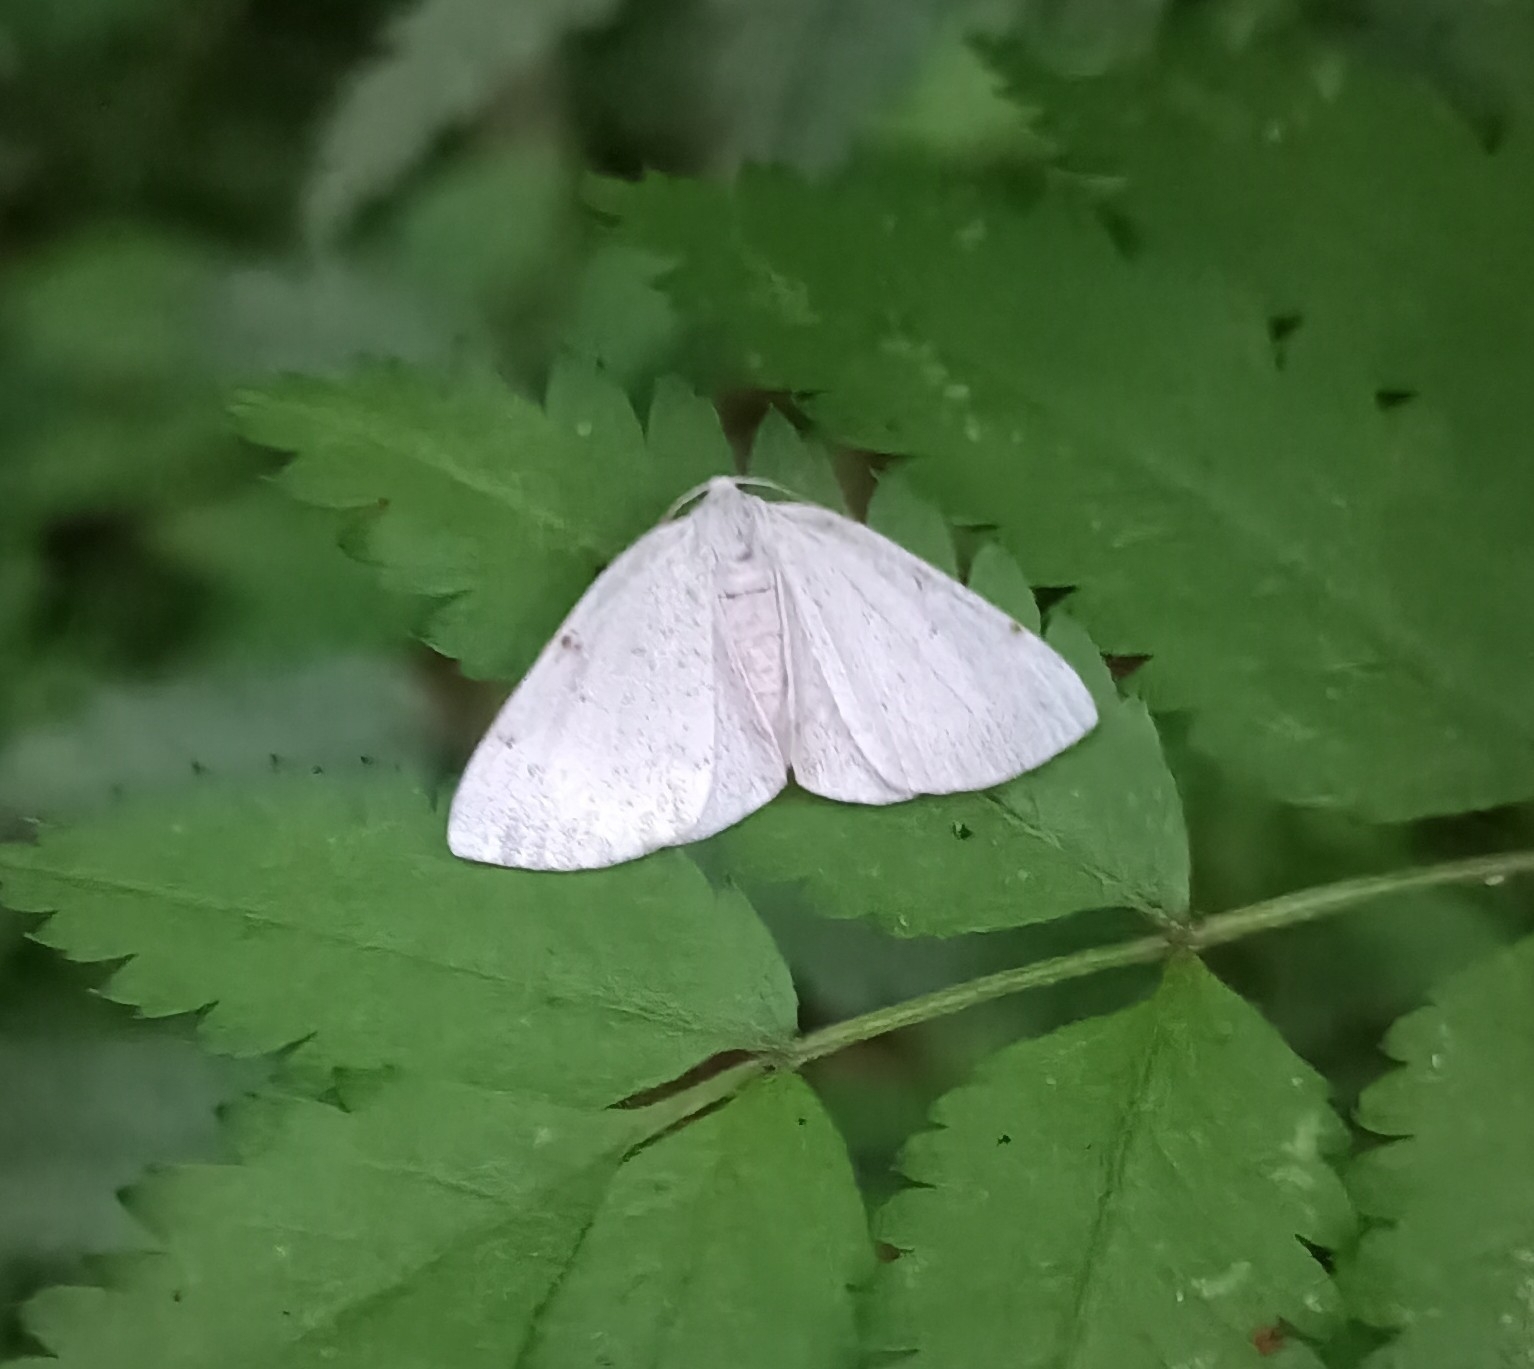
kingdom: Animalia
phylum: Arthropoda
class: Insecta
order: Lepidoptera
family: Geometridae
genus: Lomographa
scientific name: Lomographa bimaculata
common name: White-pinion spotted
